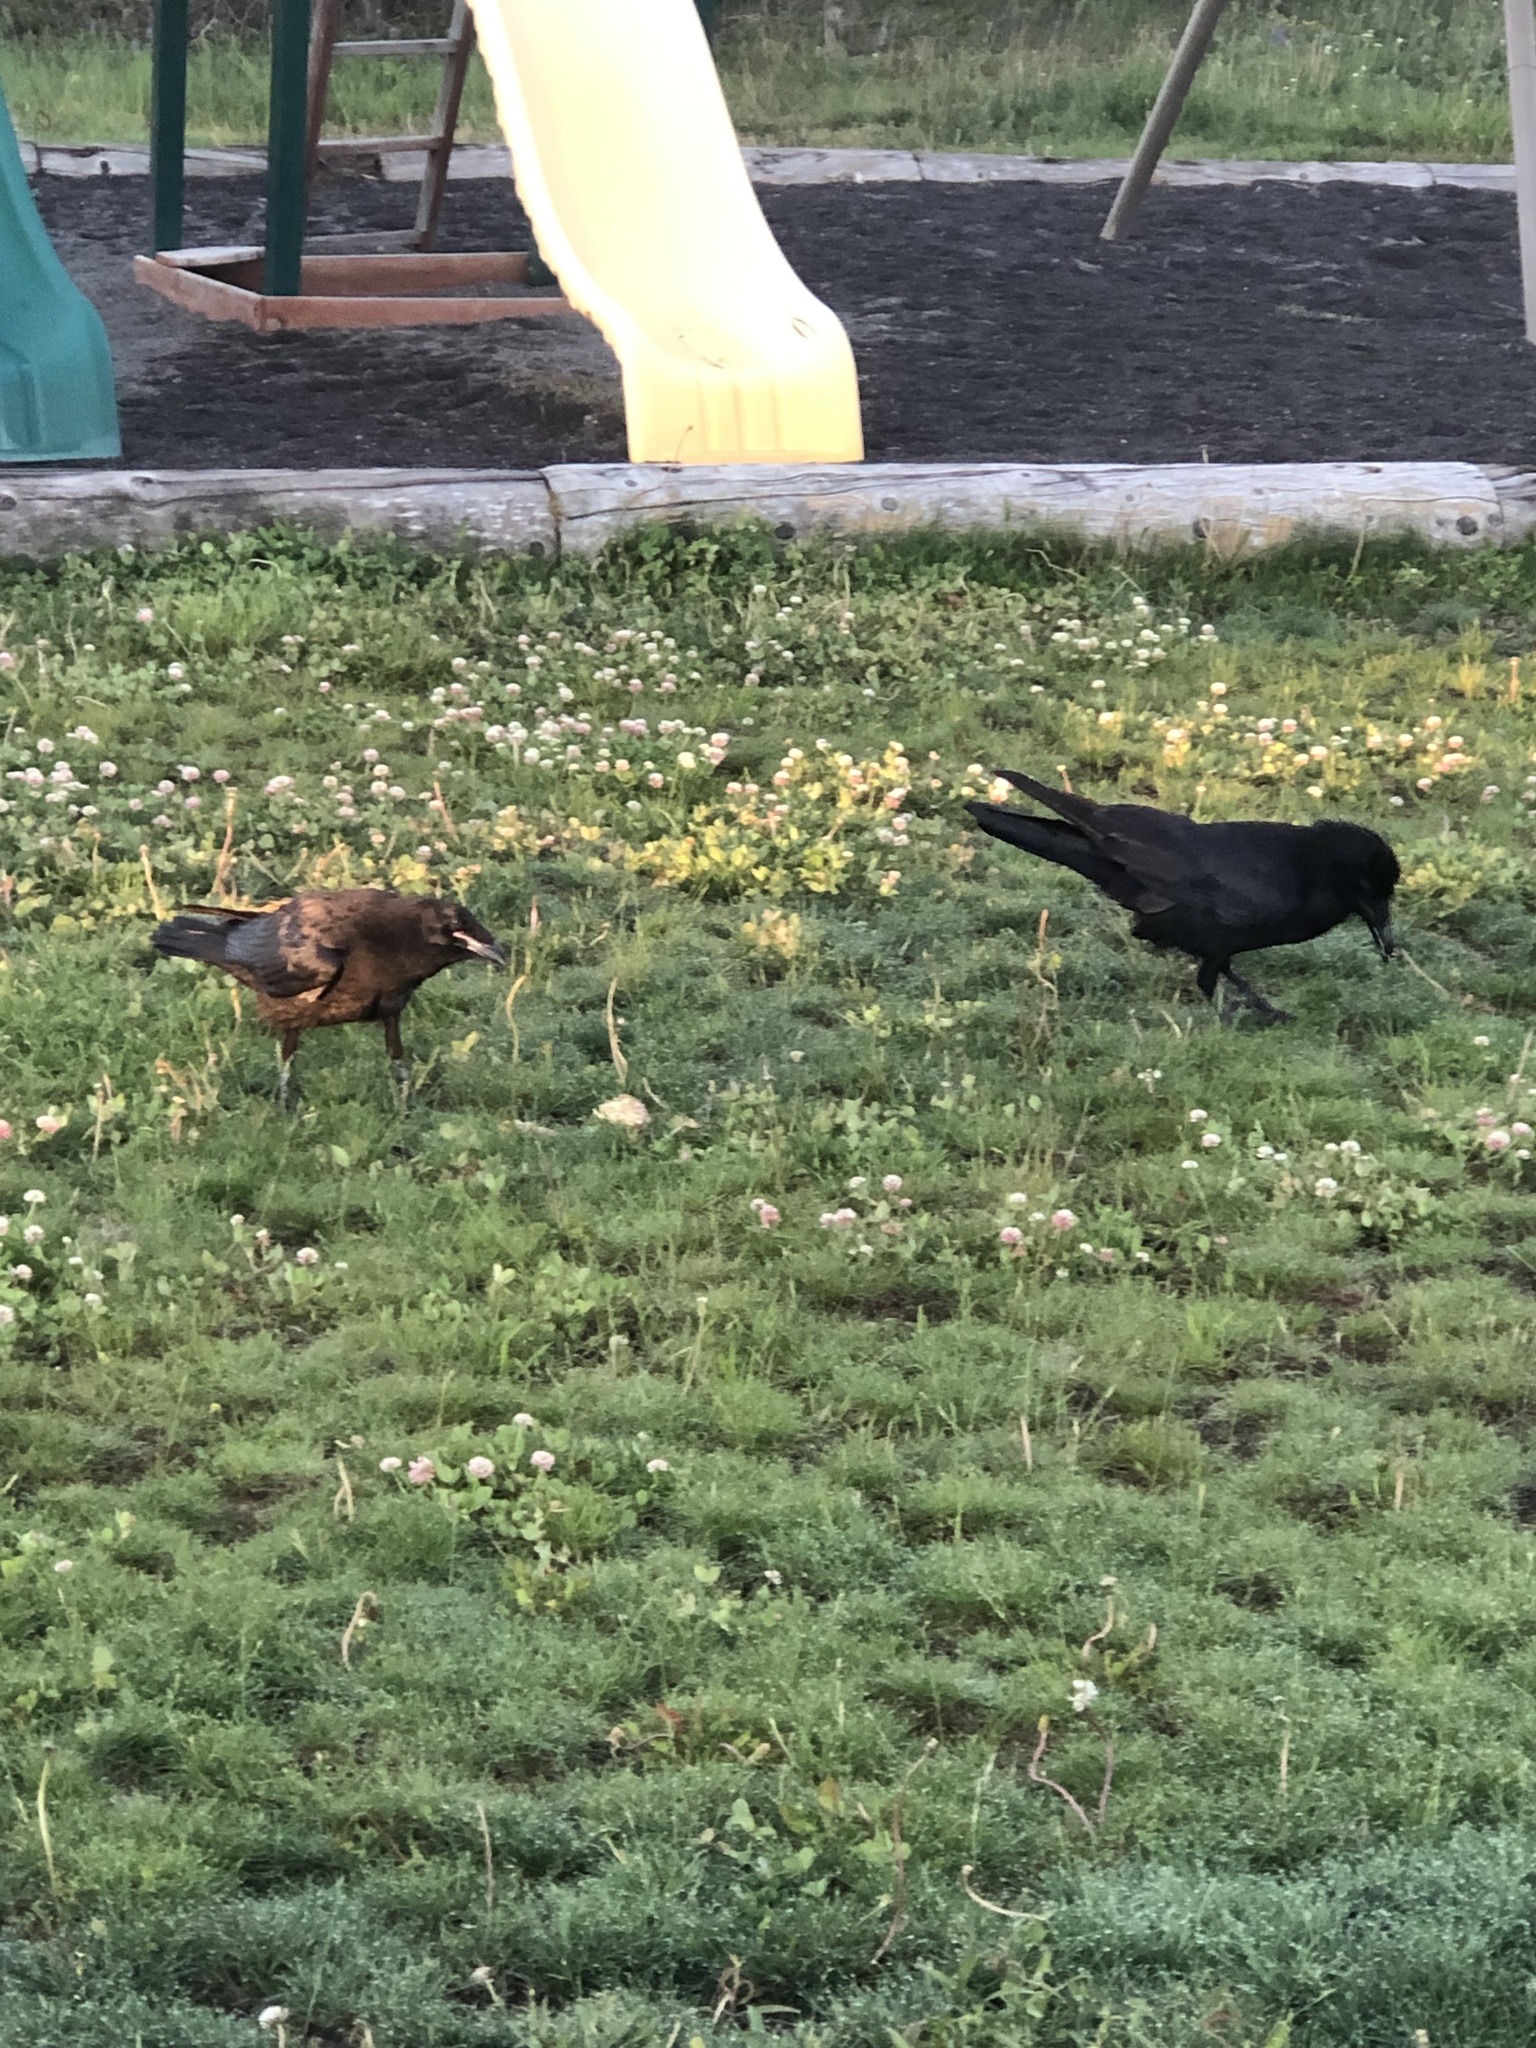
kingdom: Animalia
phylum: Chordata
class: Aves
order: Passeriformes
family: Corvidae
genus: Corvus
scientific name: Corvus corax
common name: Common raven
